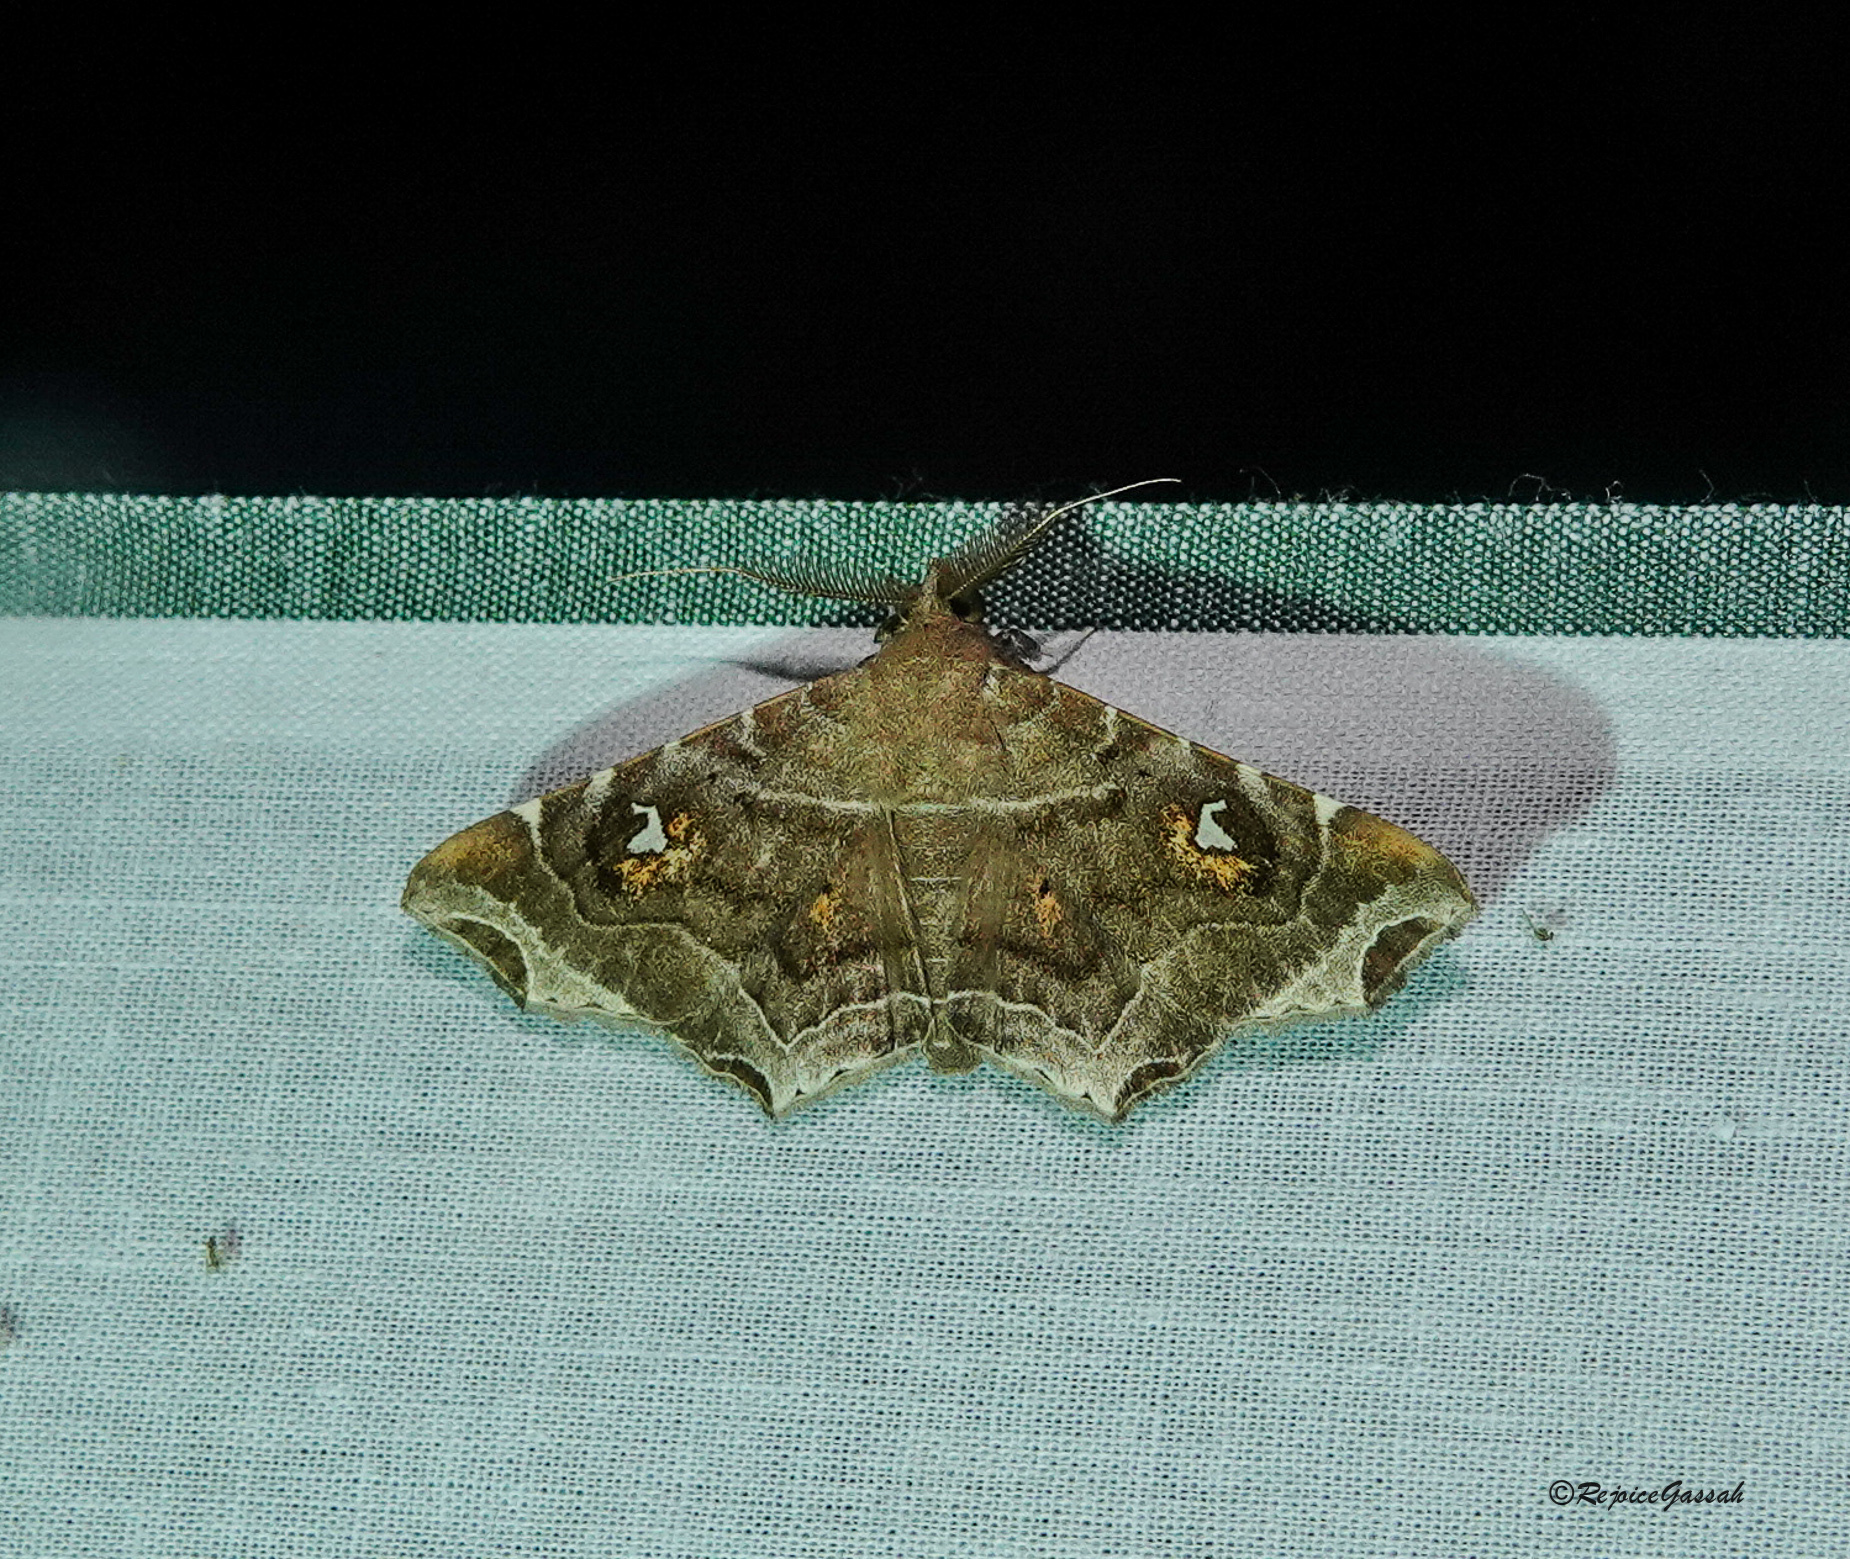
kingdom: Animalia
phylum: Arthropoda
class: Insecta
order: Lepidoptera
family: Erebidae
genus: Episparis
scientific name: Episparis liturata
